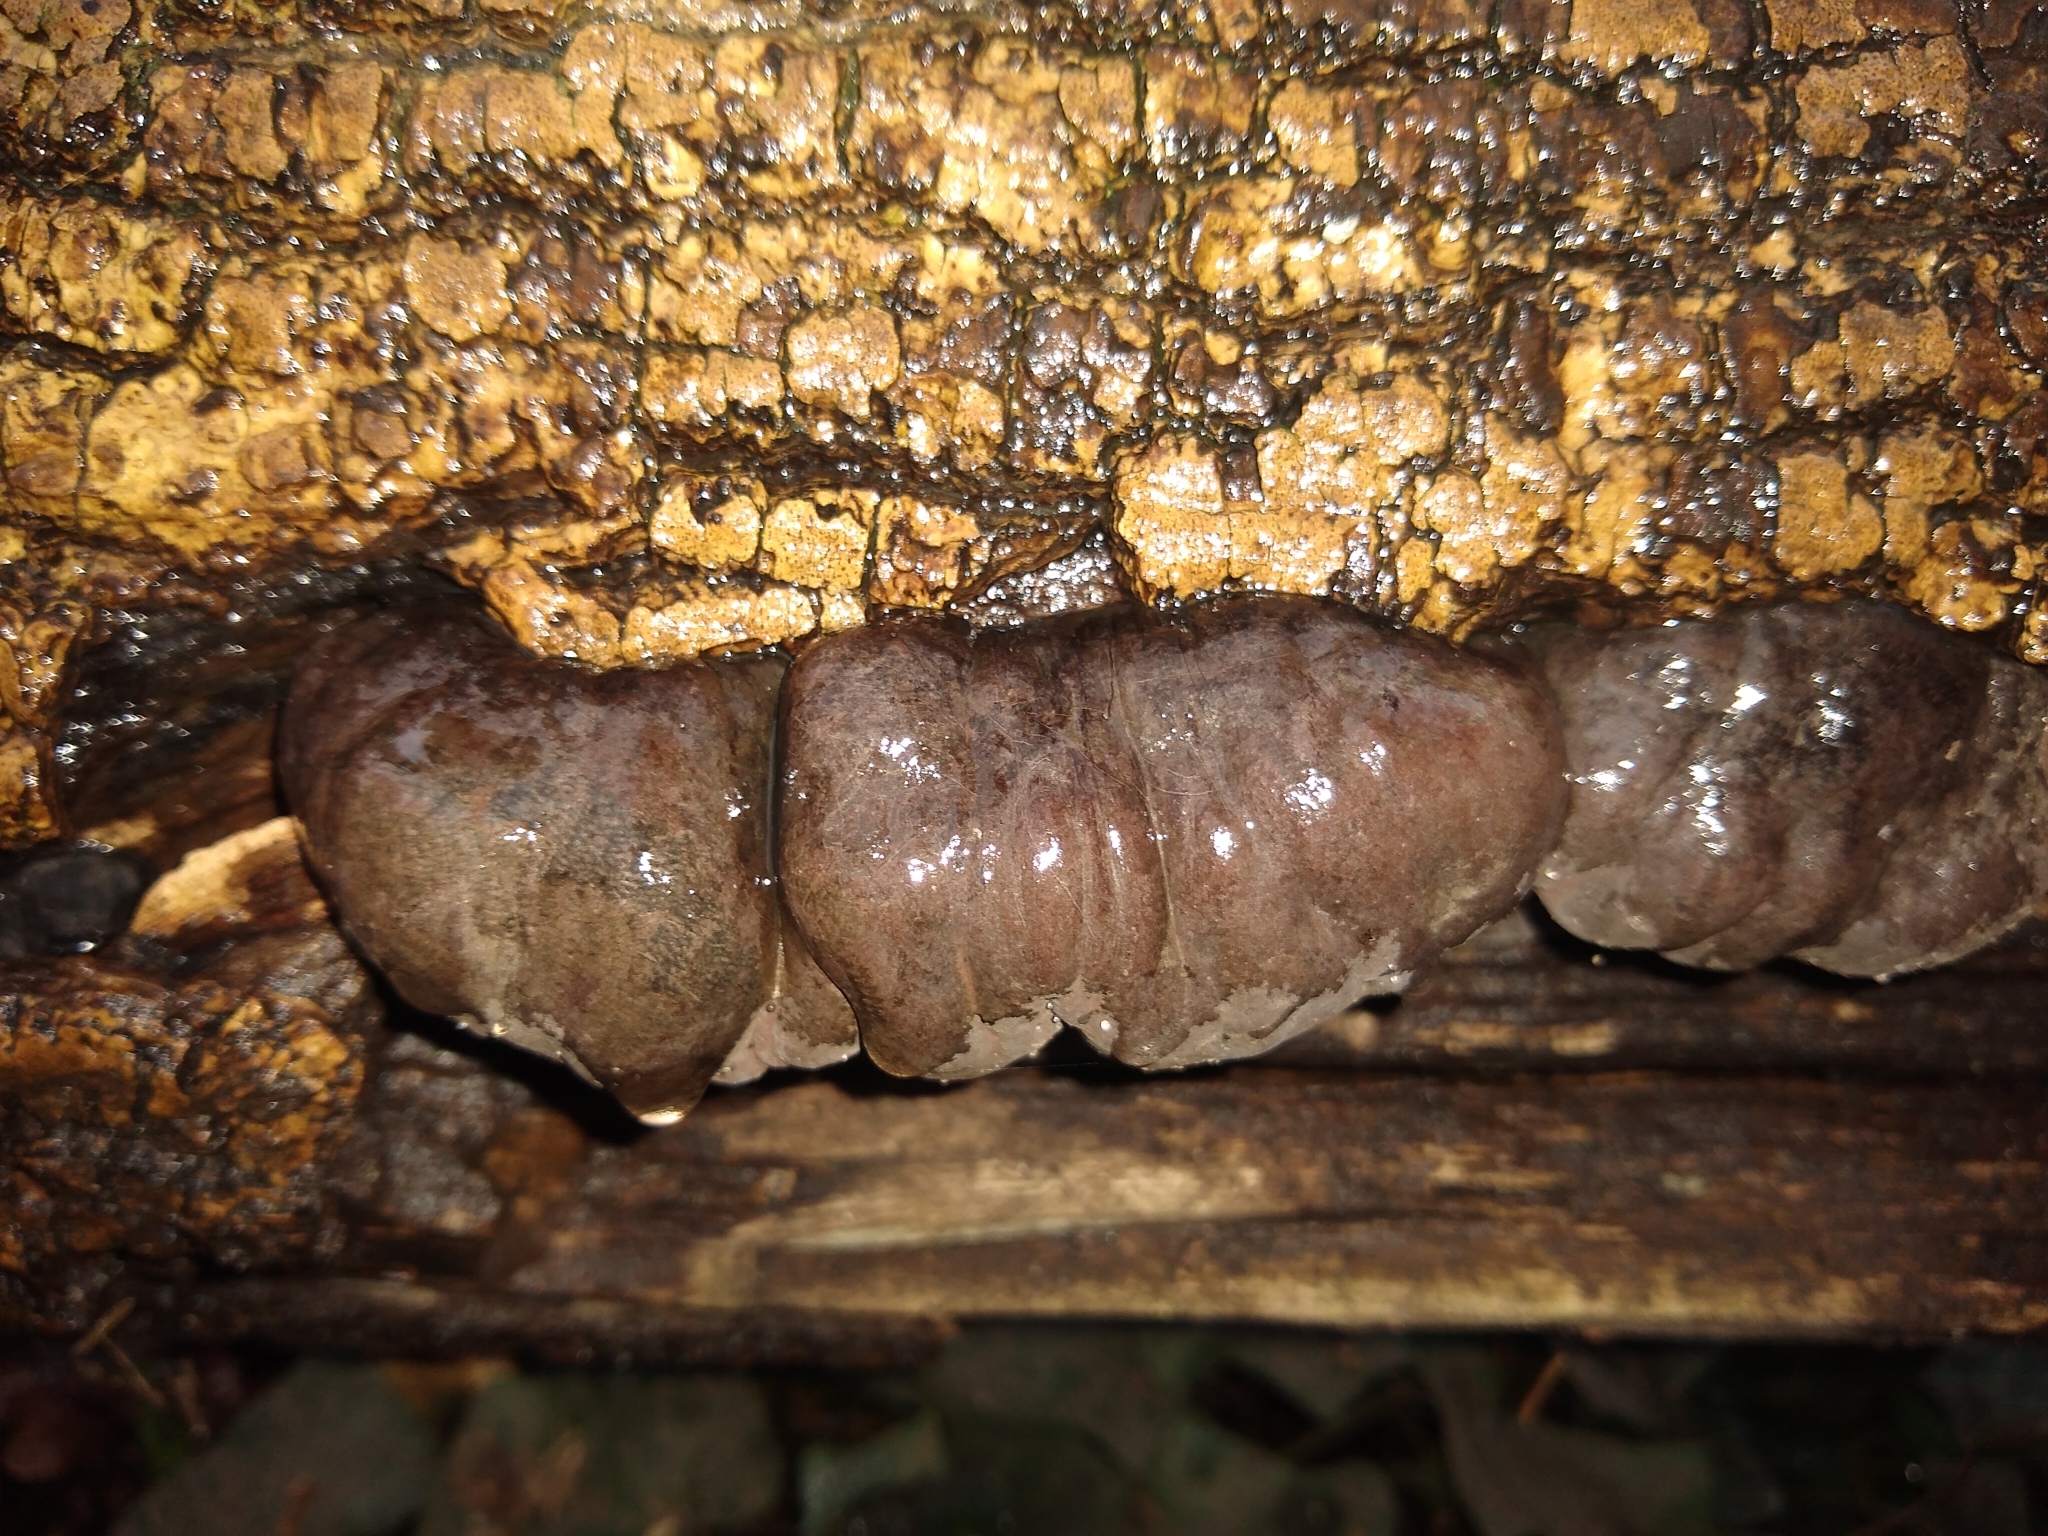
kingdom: Fungi
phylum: Ascomycota
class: Sordariomycetes
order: Xylariales
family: Hypoxylaceae
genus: Daldinia
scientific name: Daldinia concentrica
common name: Cramp balls
